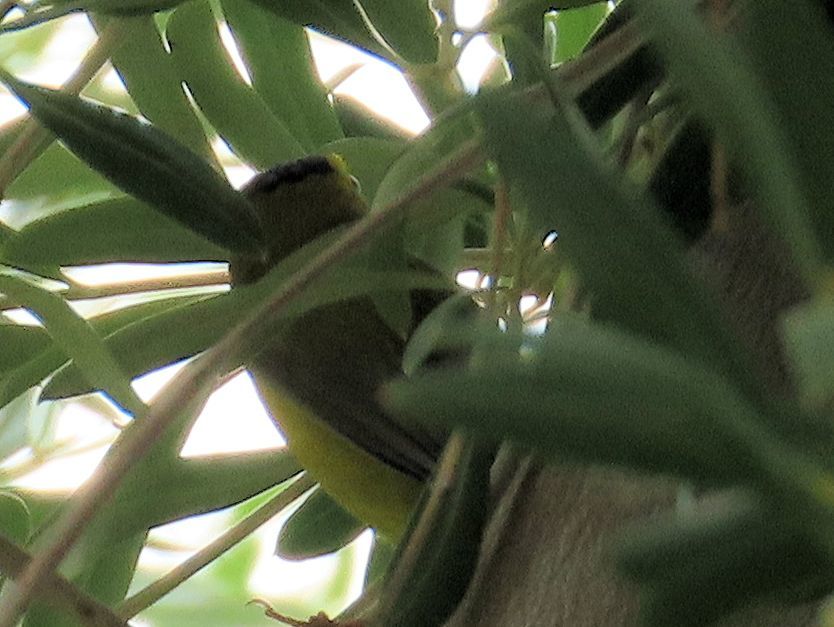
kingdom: Animalia
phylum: Chordata
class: Aves
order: Passeriformes
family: Parulidae
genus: Cardellina
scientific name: Cardellina pusilla
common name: Wilson's warbler
